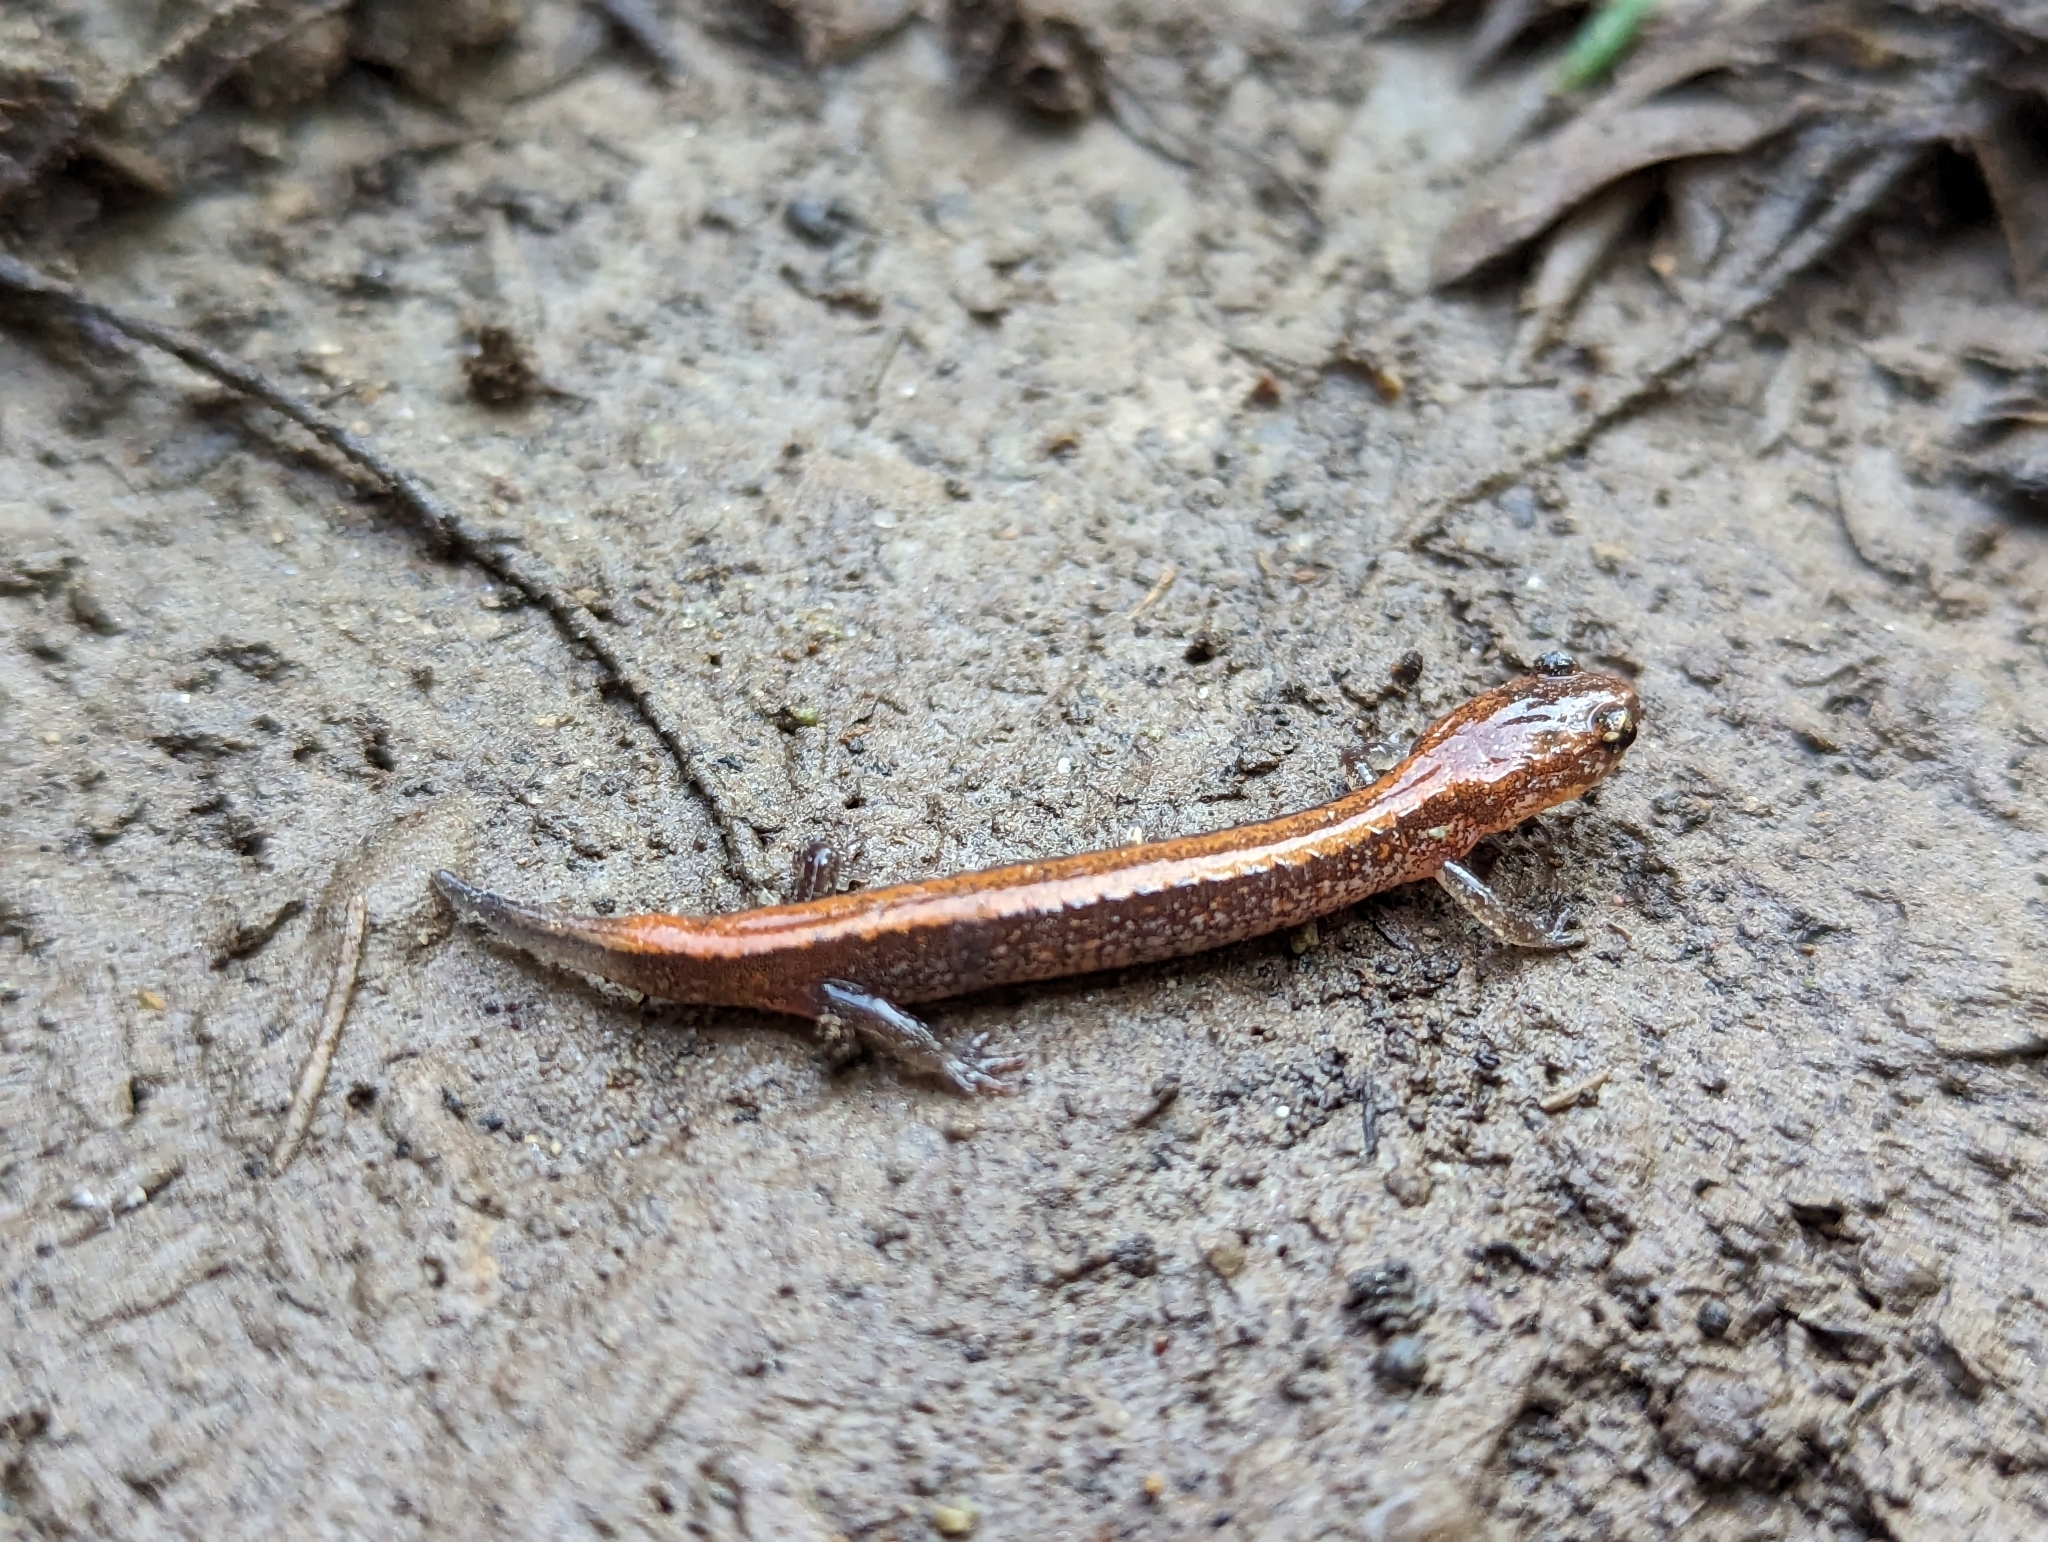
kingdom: Animalia
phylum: Chordata
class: Amphibia
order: Caudata
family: Plethodontidae
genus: Plethodon
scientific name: Plethodon cinereus
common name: Redback salamander
